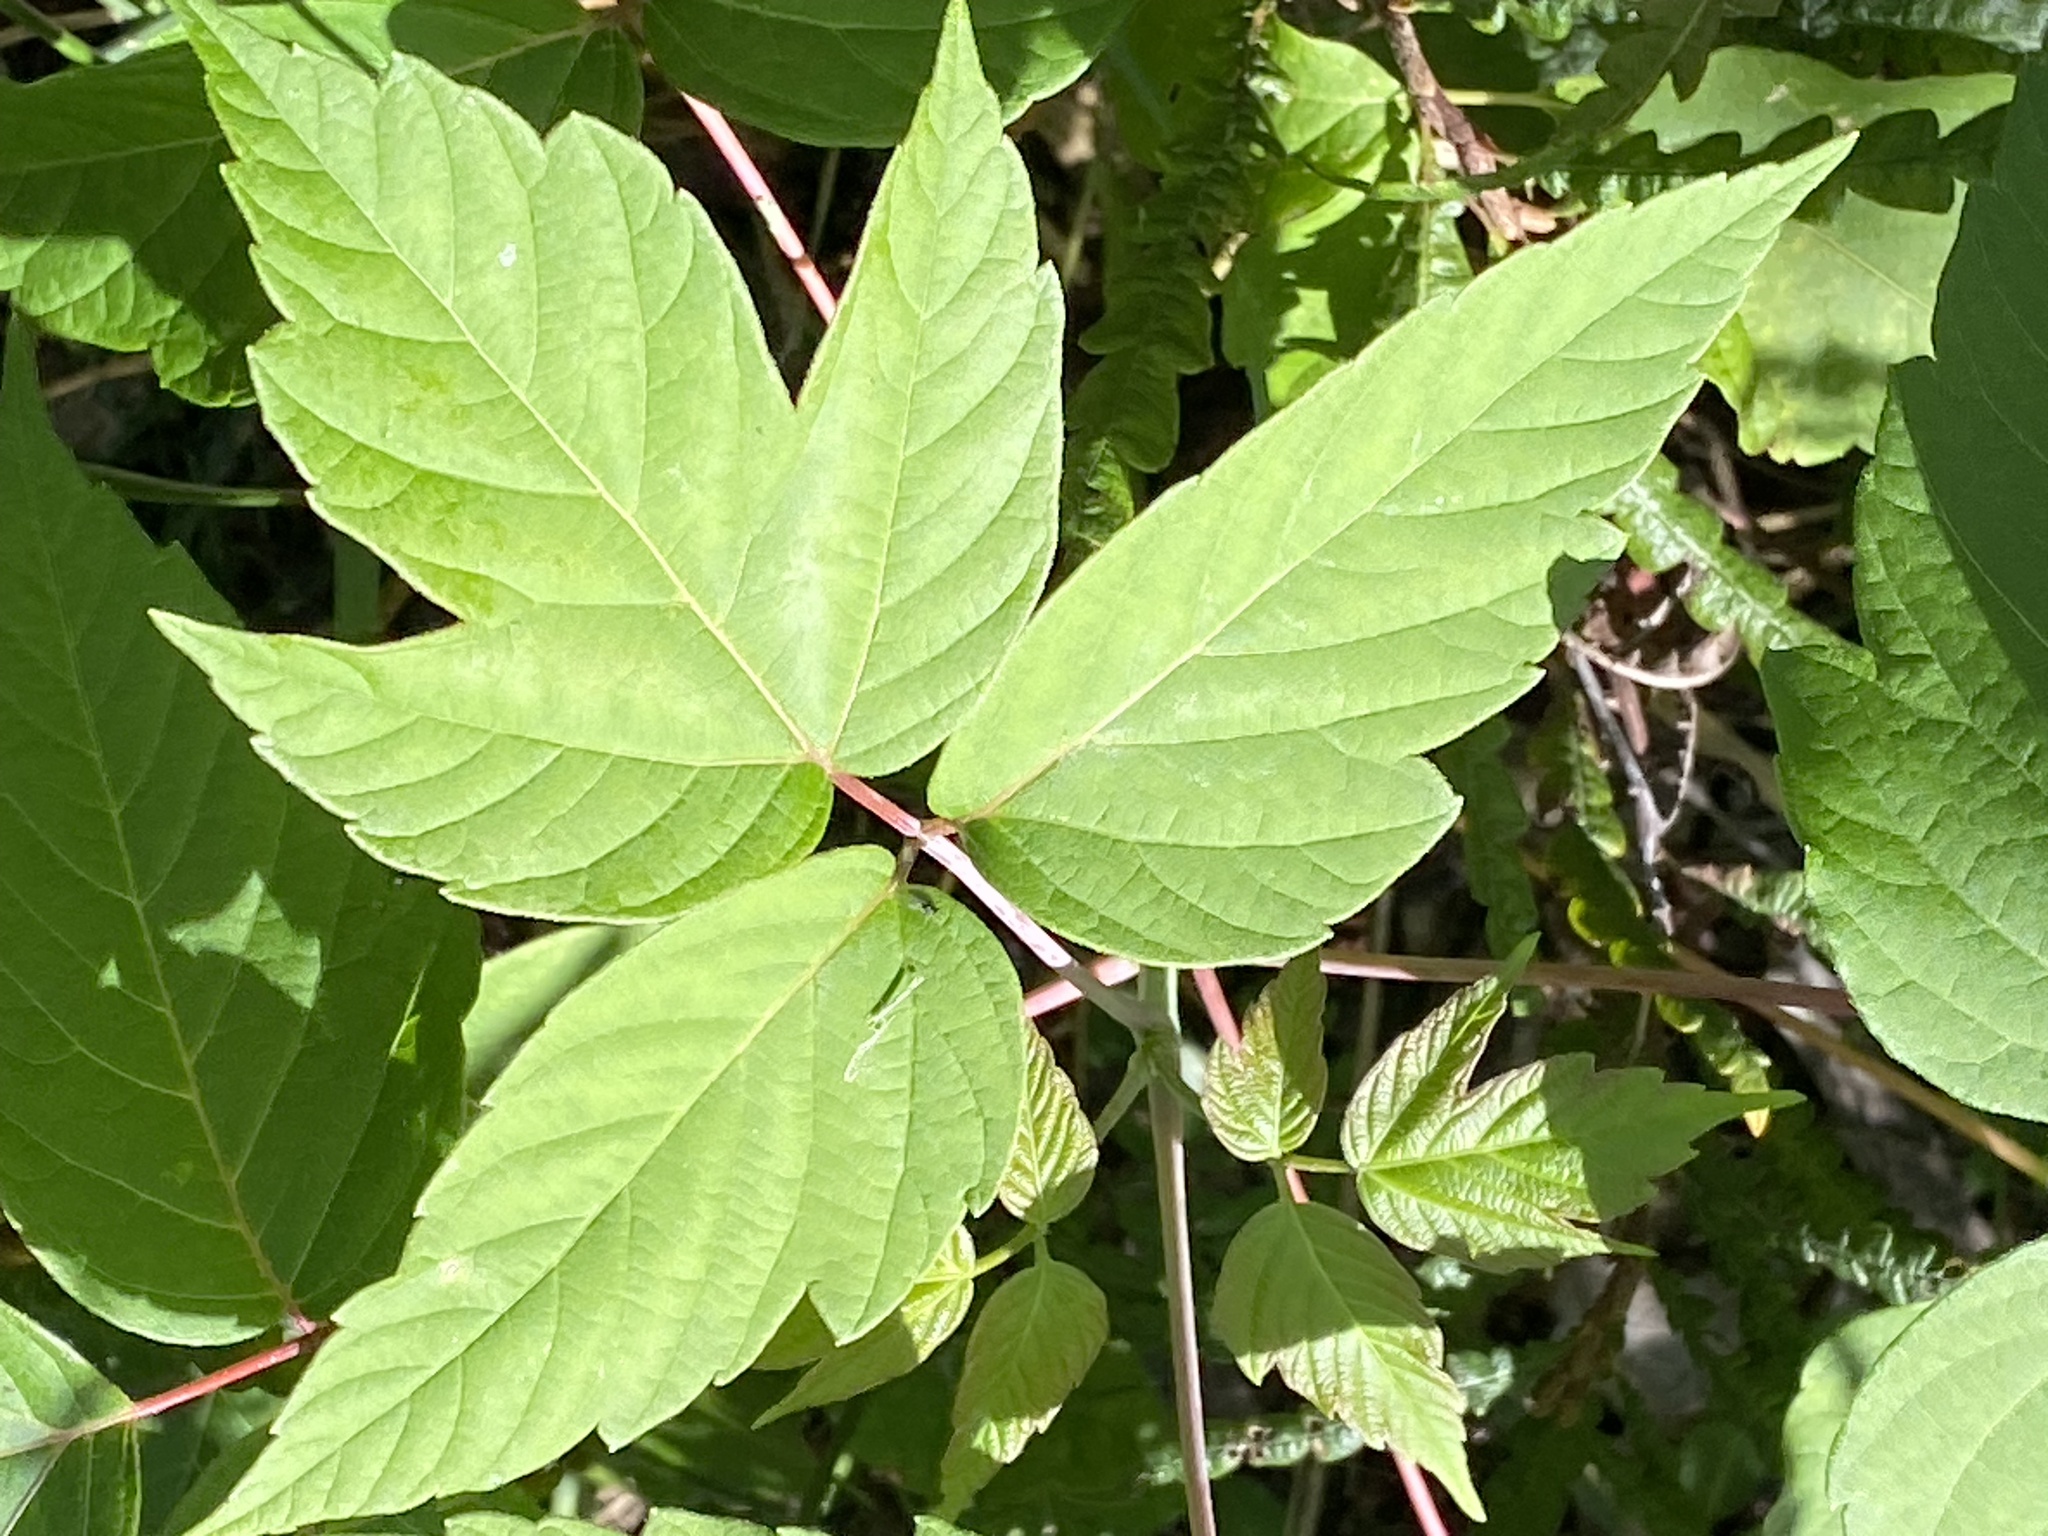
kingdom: Plantae
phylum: Tracheophyta
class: Magnoliopsida
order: Sapindales
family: Sapindaceae
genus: Acer
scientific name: Acer negundo
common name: Ashleaf maple
